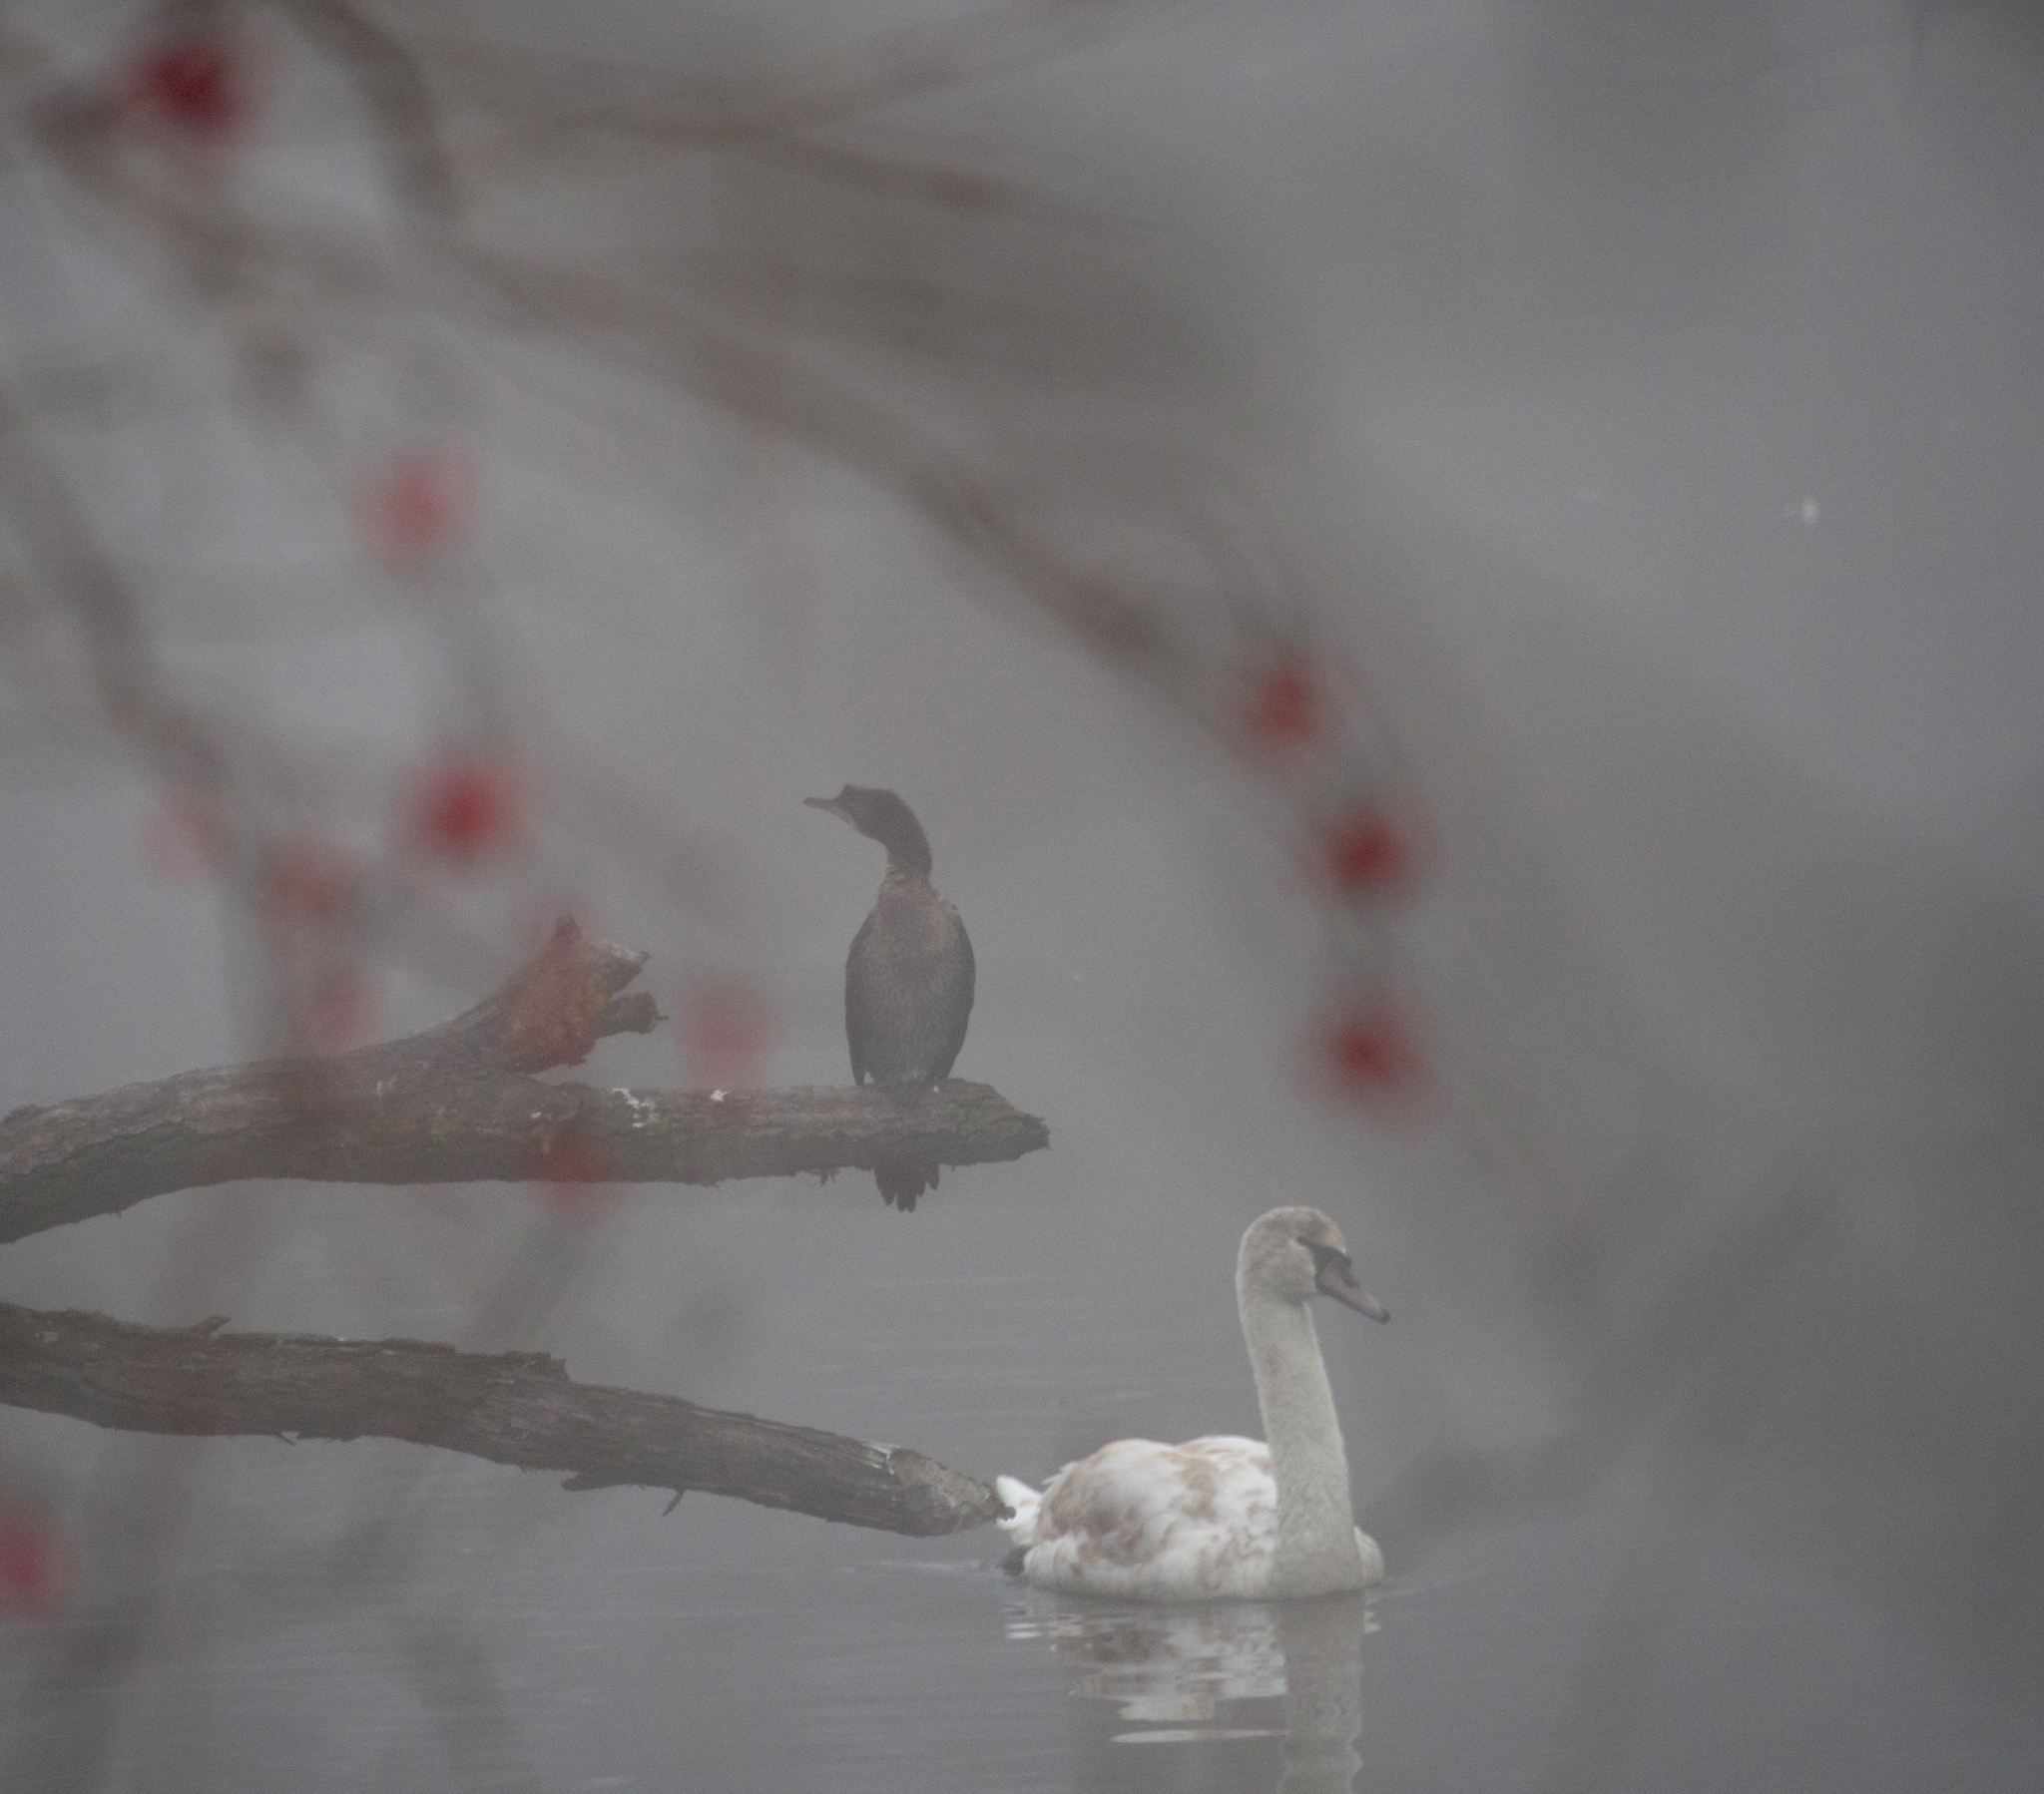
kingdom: Animalia
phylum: Chordata
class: Aves
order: Suliformes
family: Phalacrocoracidae
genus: Microcarbo
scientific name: Microcarbo pygmaeus
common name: Pygmy cormorant
